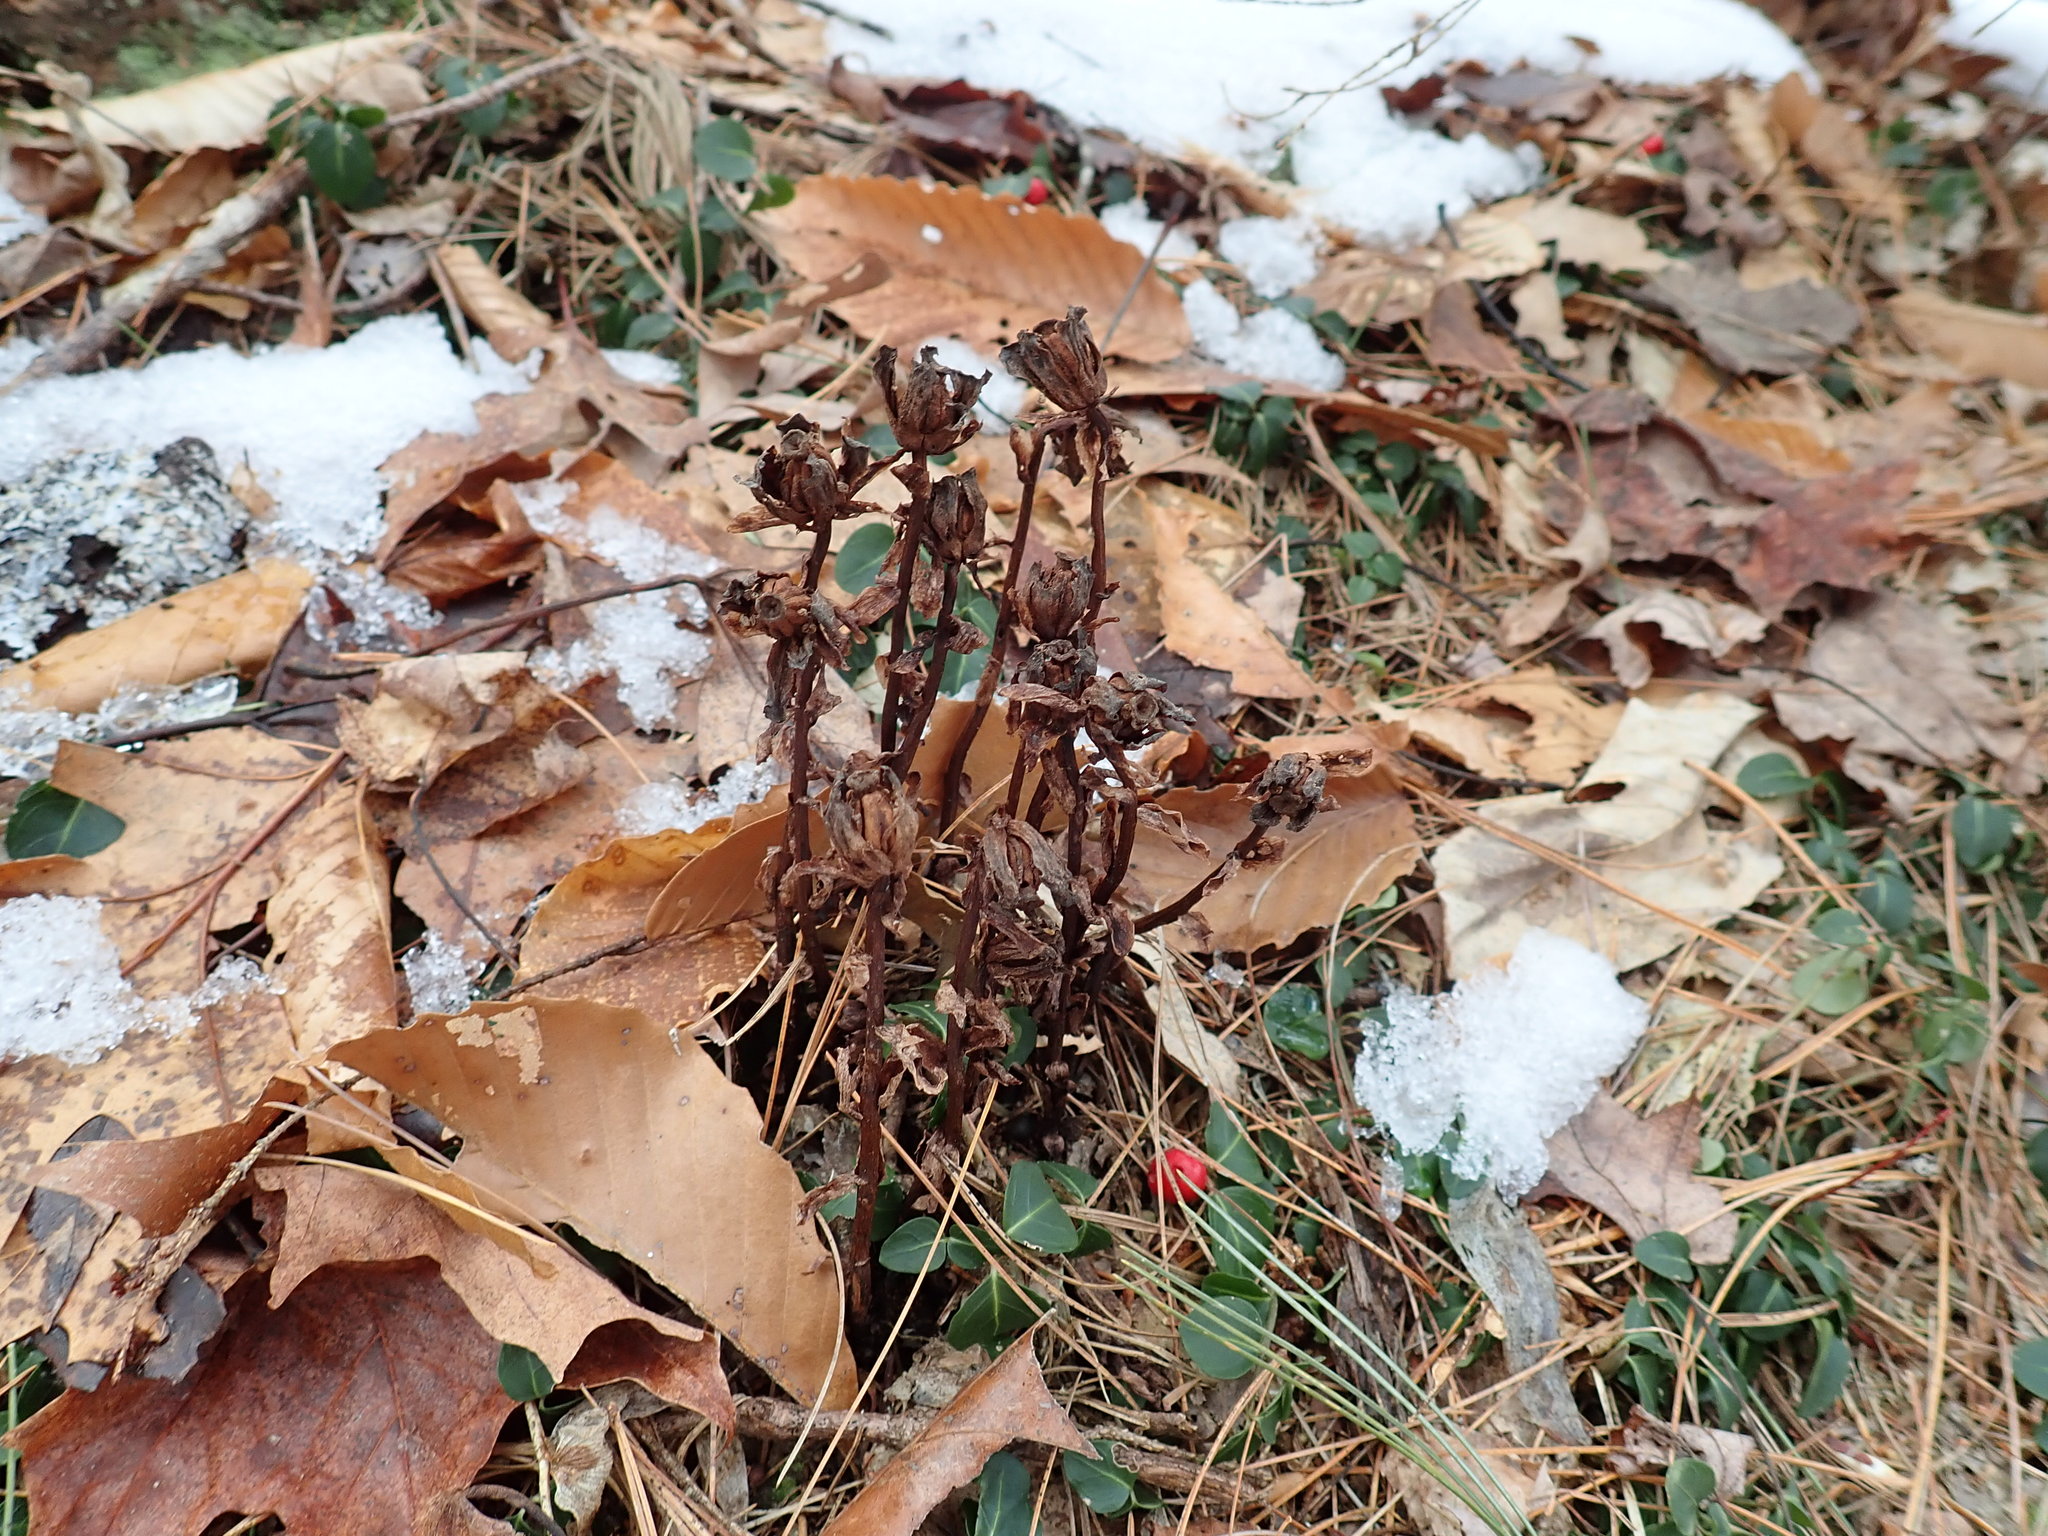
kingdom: Plantae
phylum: Tracheophyta
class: Magnoliopsida
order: Ericales
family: Ericaceae
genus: Monotropa
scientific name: Monotropa uniflora
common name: Convulsion root
